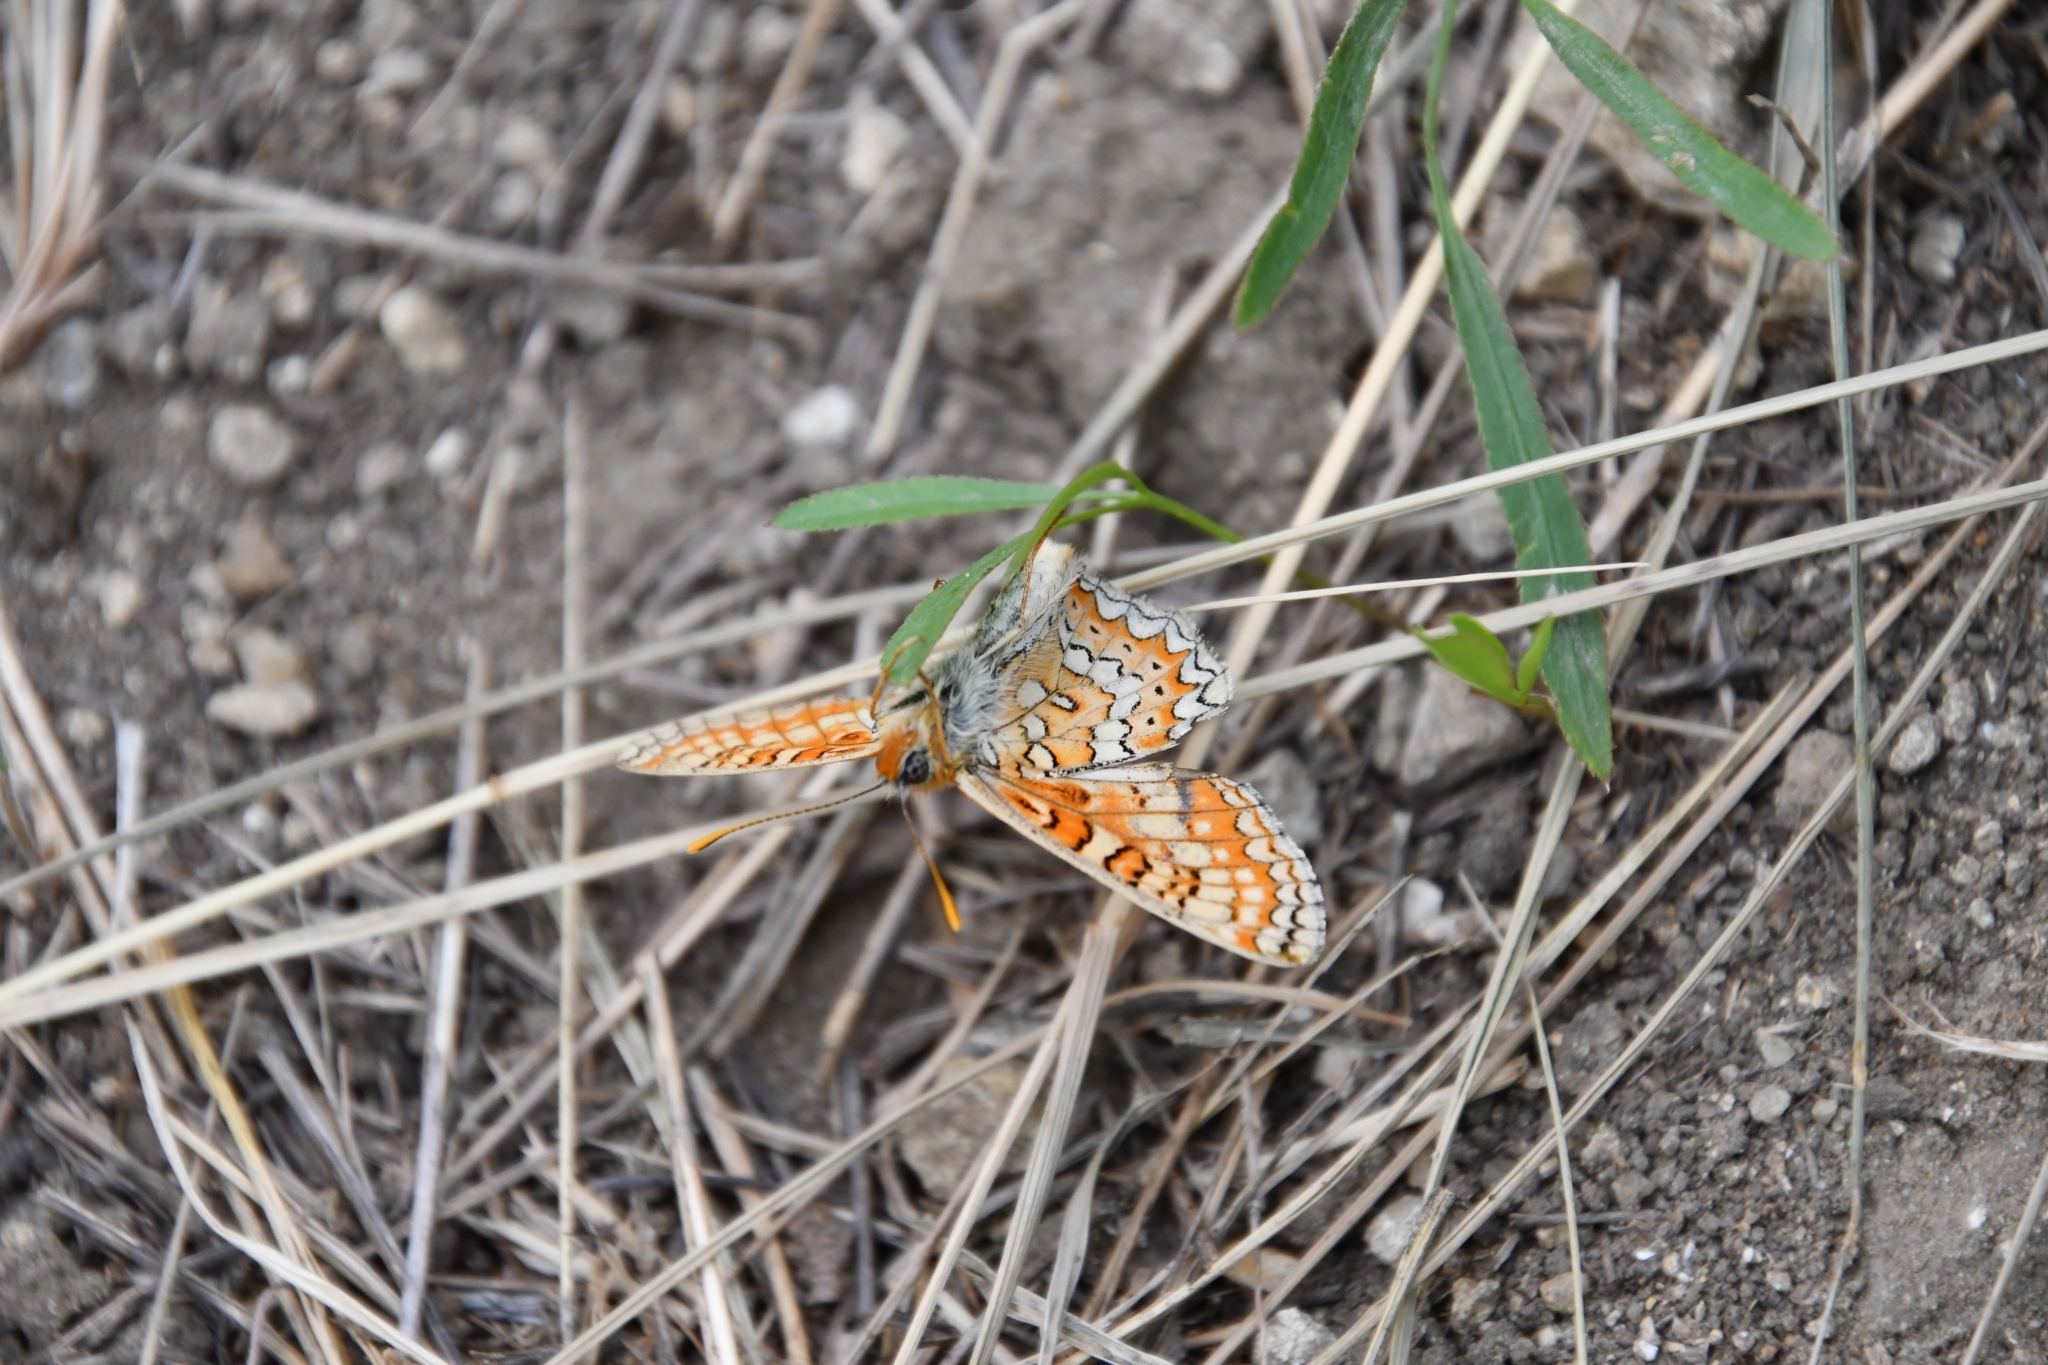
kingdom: Animalia
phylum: Arthropoda
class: Insecta
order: Lepidoptera
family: Nymphalidae
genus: Euphydryas
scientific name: Euphydryas aurinia
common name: Marsh fritillary
